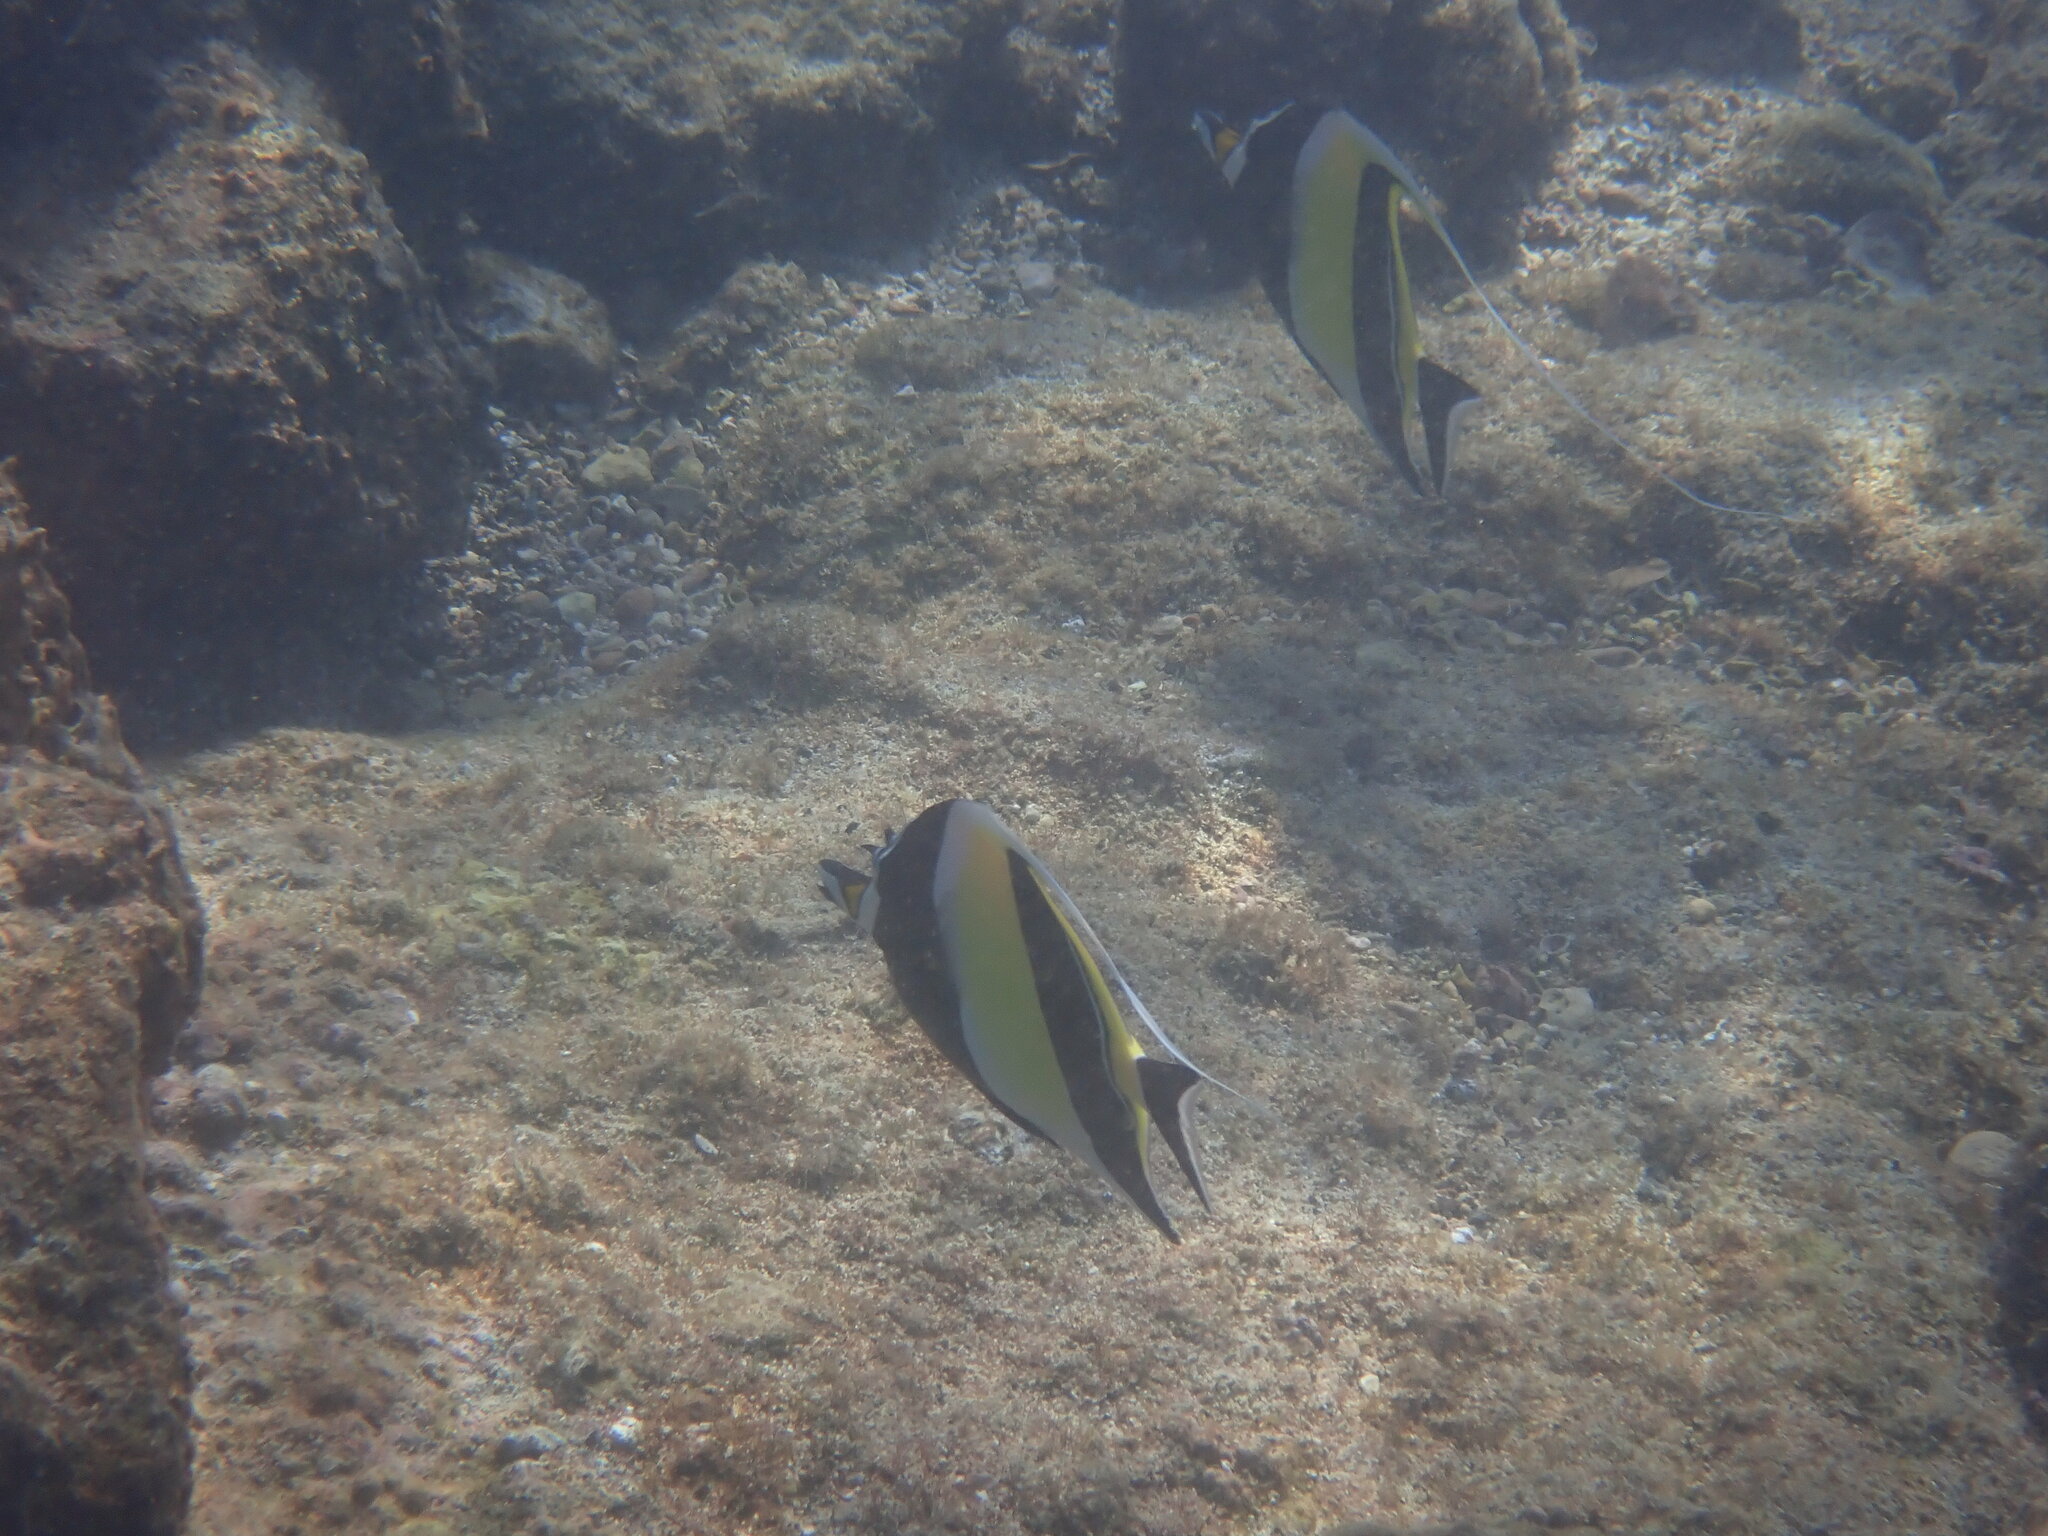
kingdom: Animalia
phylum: Chordata
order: Perciformes
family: Zanclidae
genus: Zanclus
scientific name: Zanclus cornutus
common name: Moorish idol
